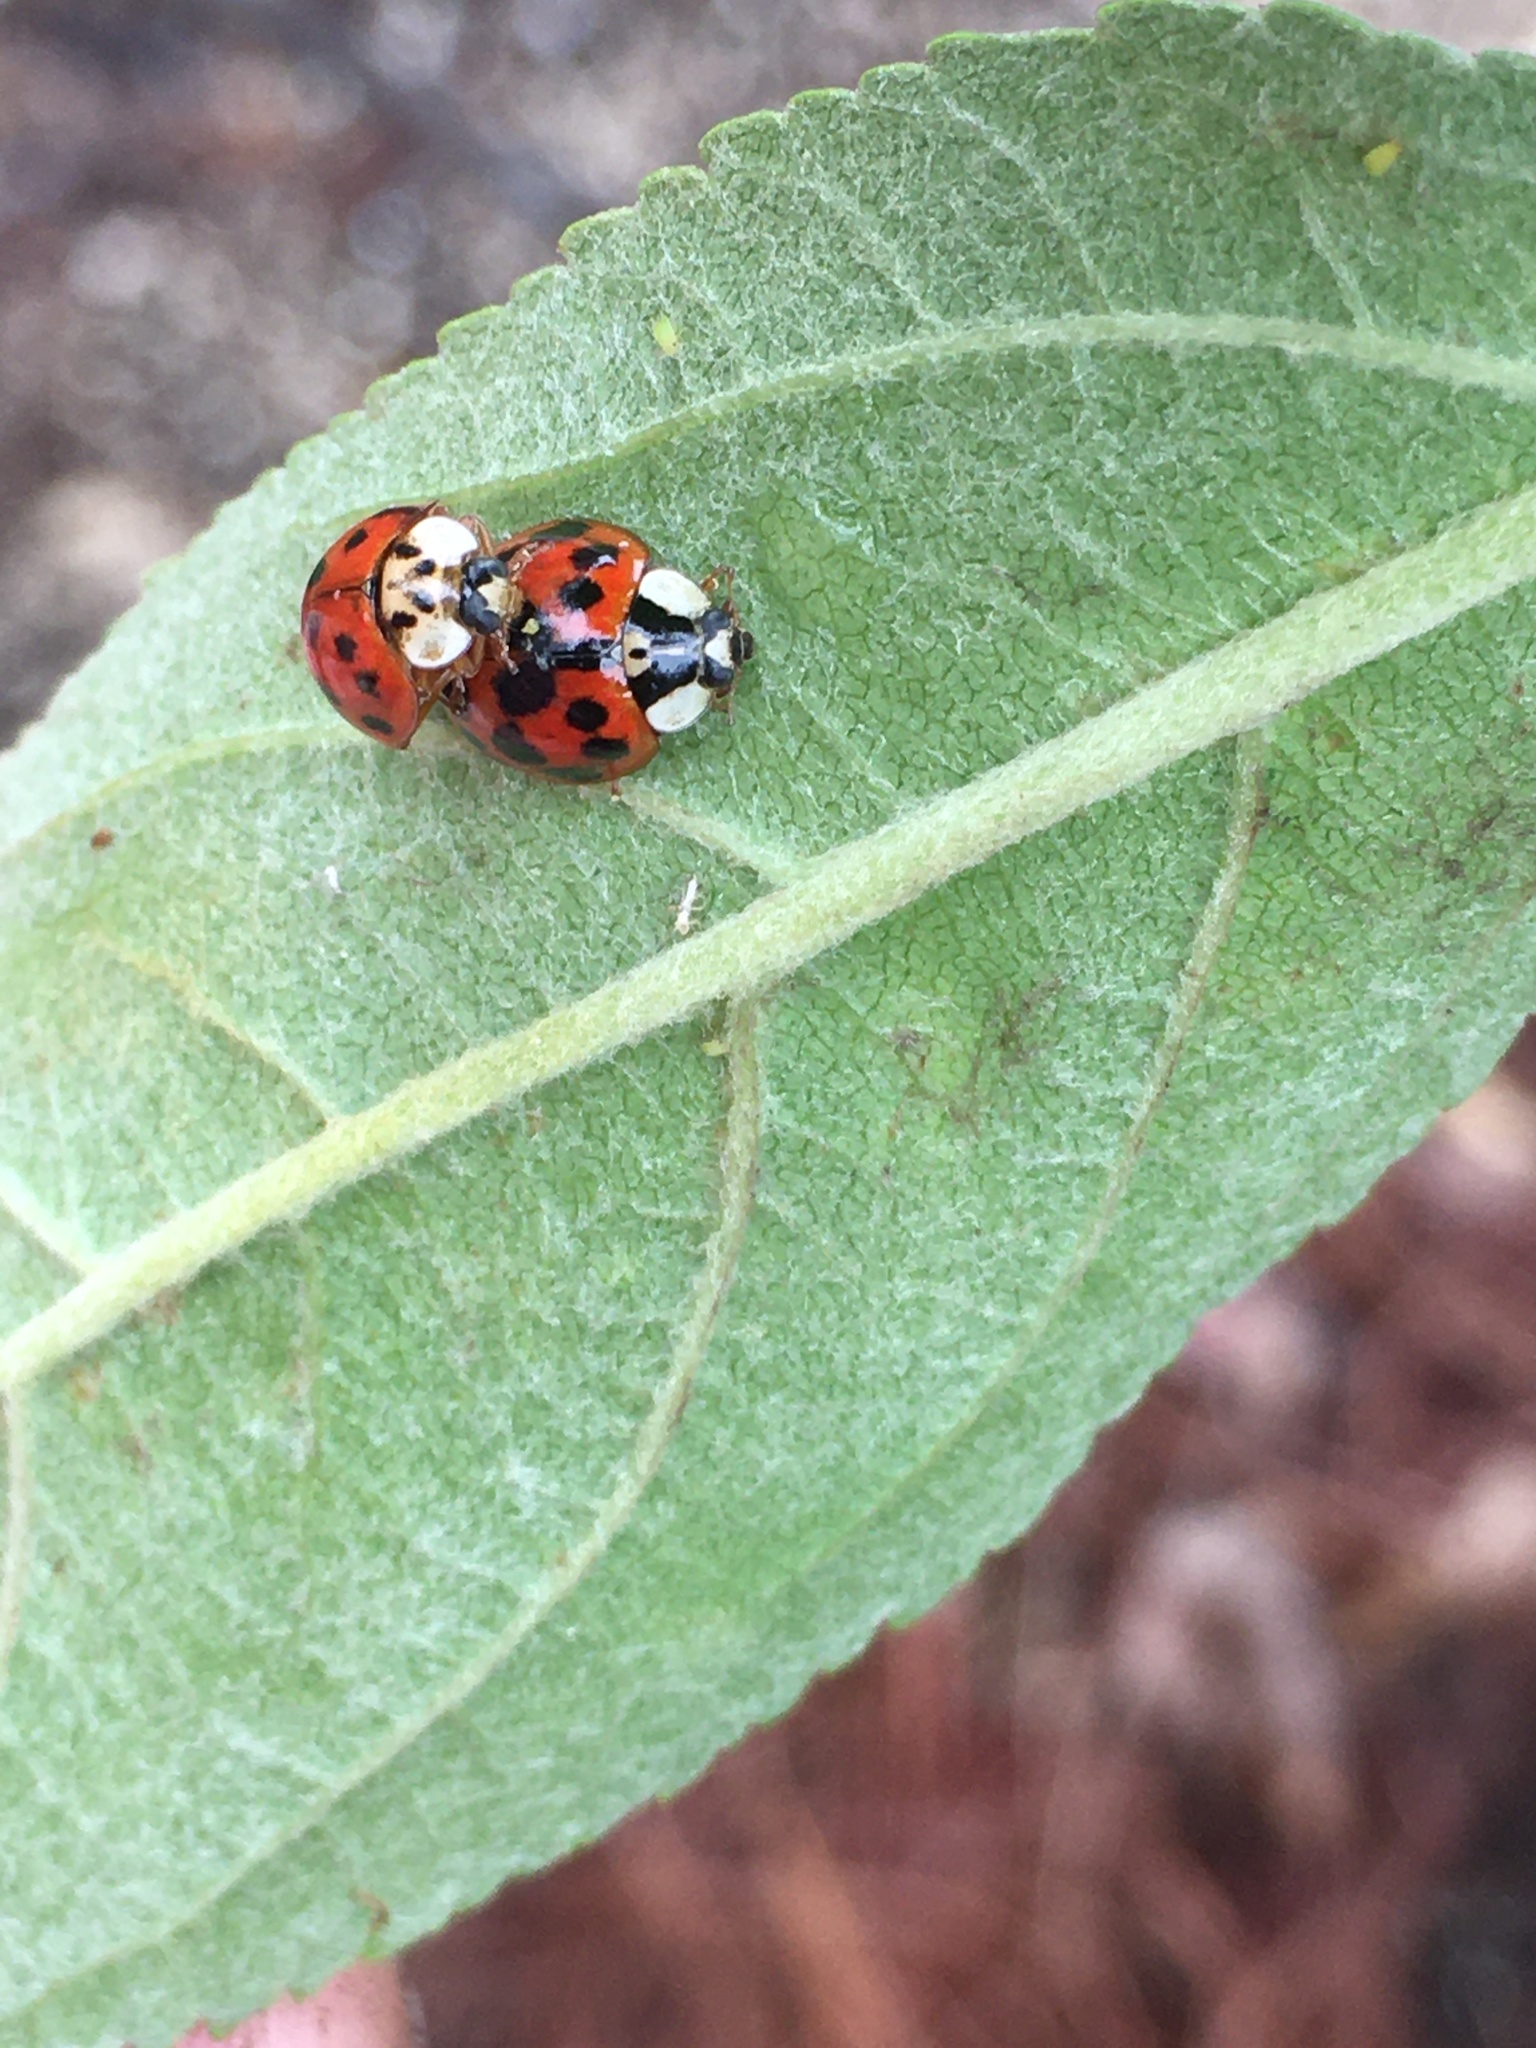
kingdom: Animalia
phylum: Arthropoda
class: Insecta
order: Coleoptera
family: Coccinellidae
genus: Harmonia
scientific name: Harmonia axyridis
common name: Harlequin ladybird
